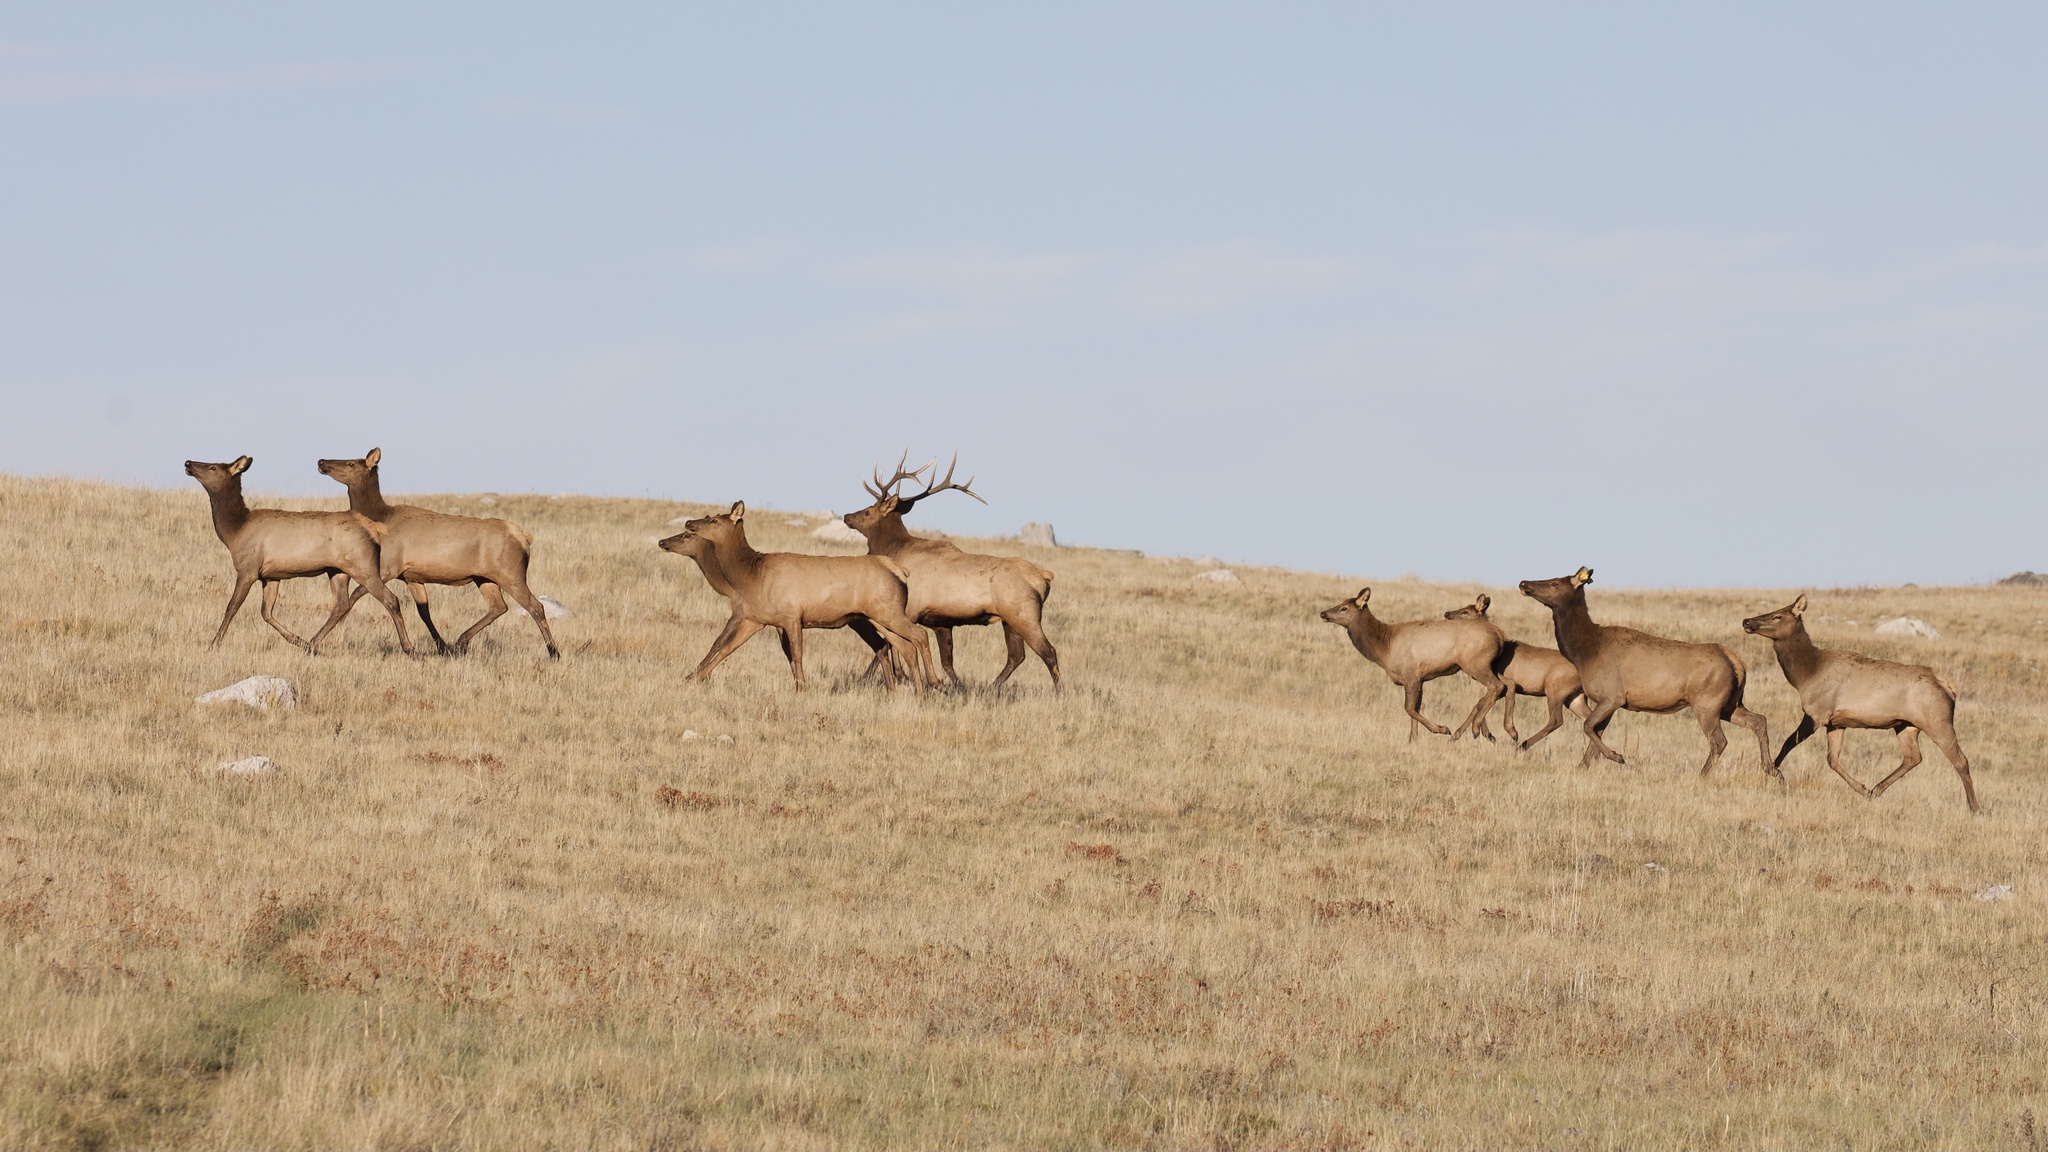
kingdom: Animalia
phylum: Chordata
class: Mammalia
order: Artiodactyla
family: Cervidae
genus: Cervus
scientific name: Cervus elaphus
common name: Red deer
